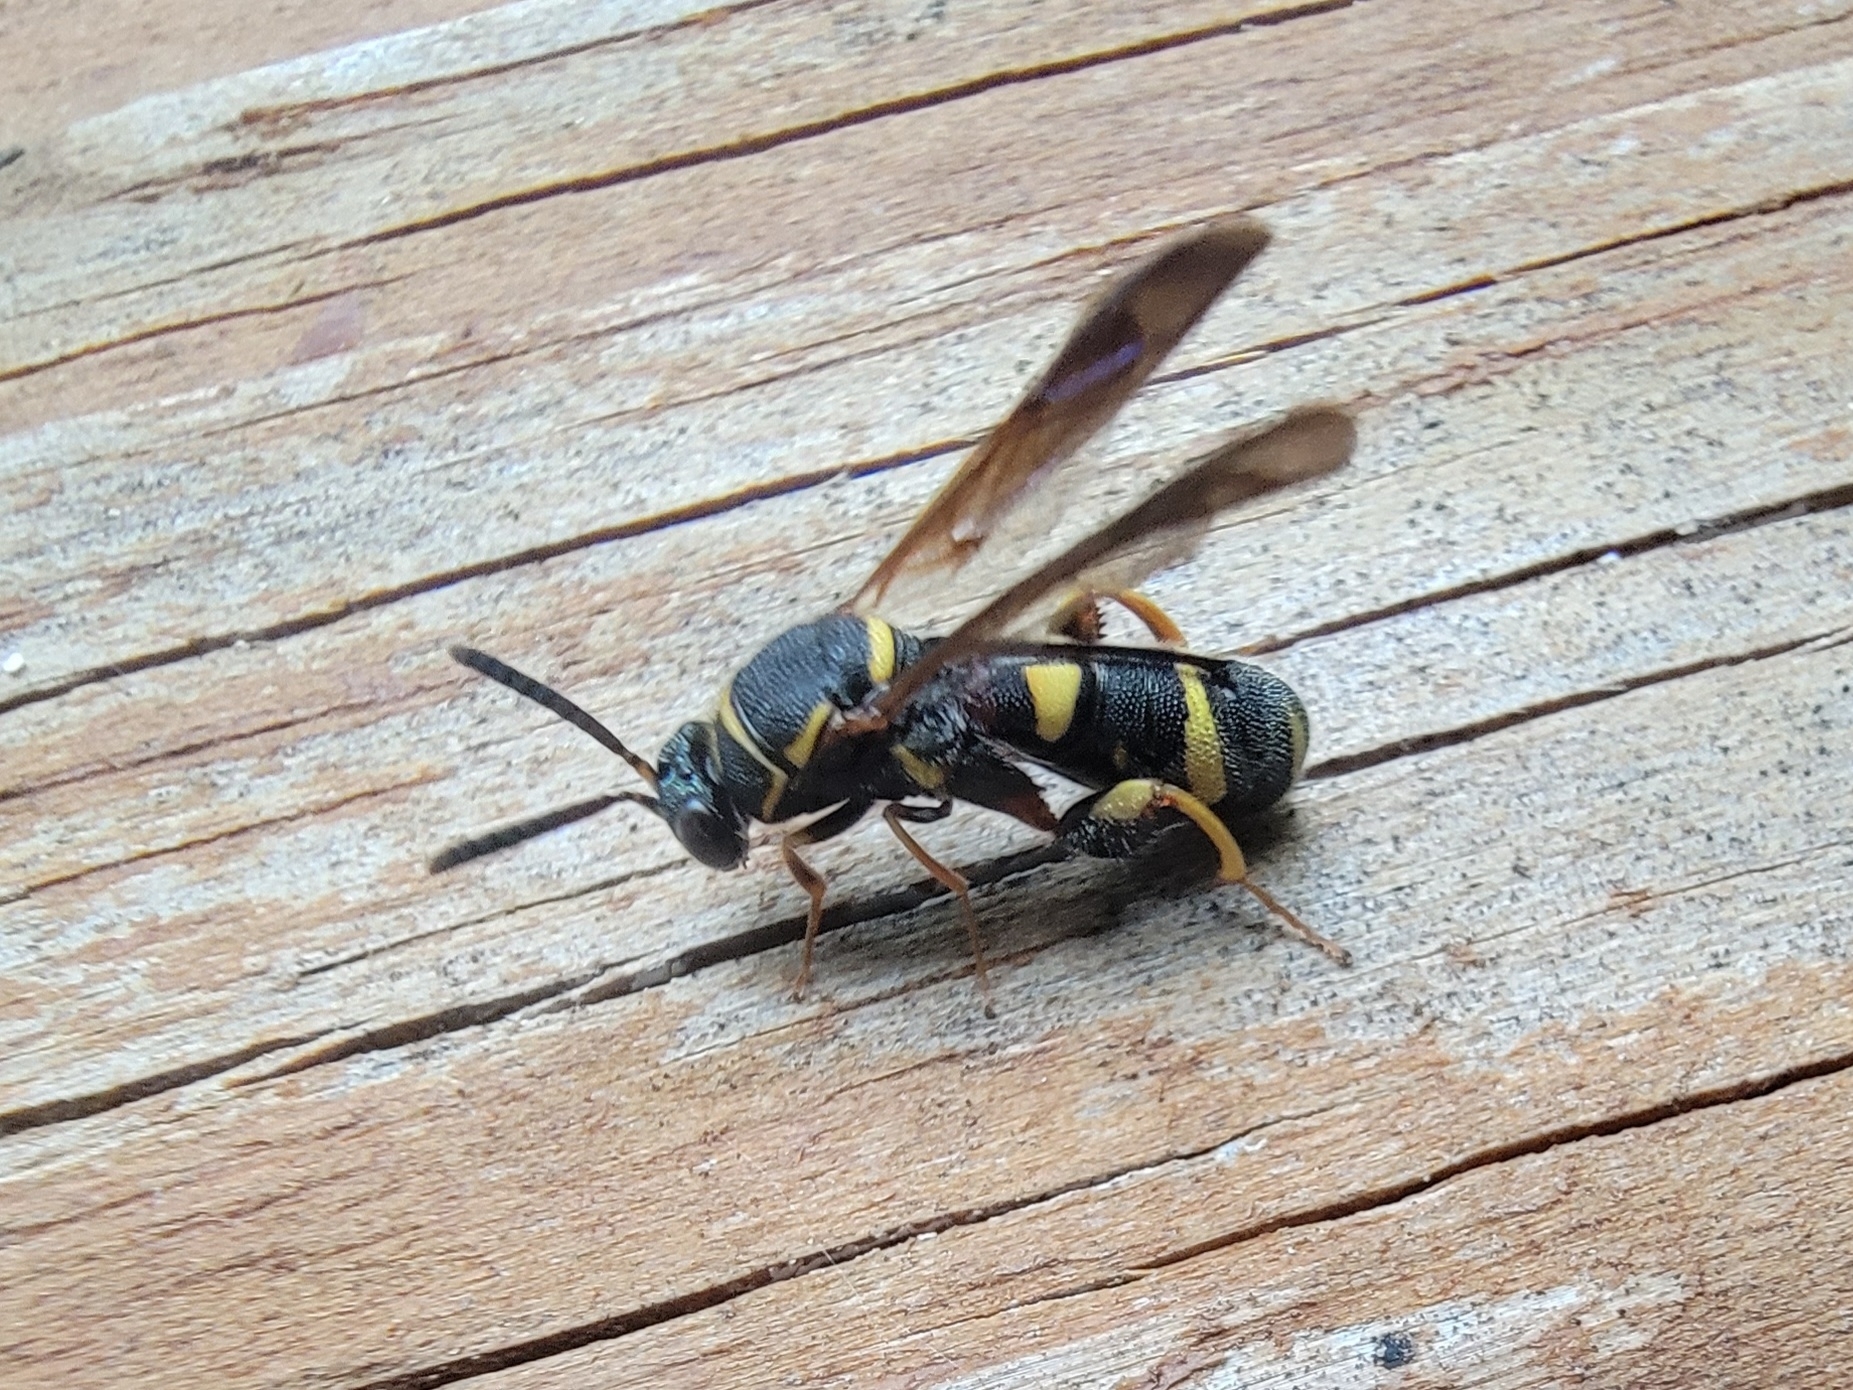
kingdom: Animalia
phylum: Arthropoda
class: Insecta
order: Hymenoptera
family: Leucospidae
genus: Leucospis
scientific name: Leucospis affinis
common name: Wasp
